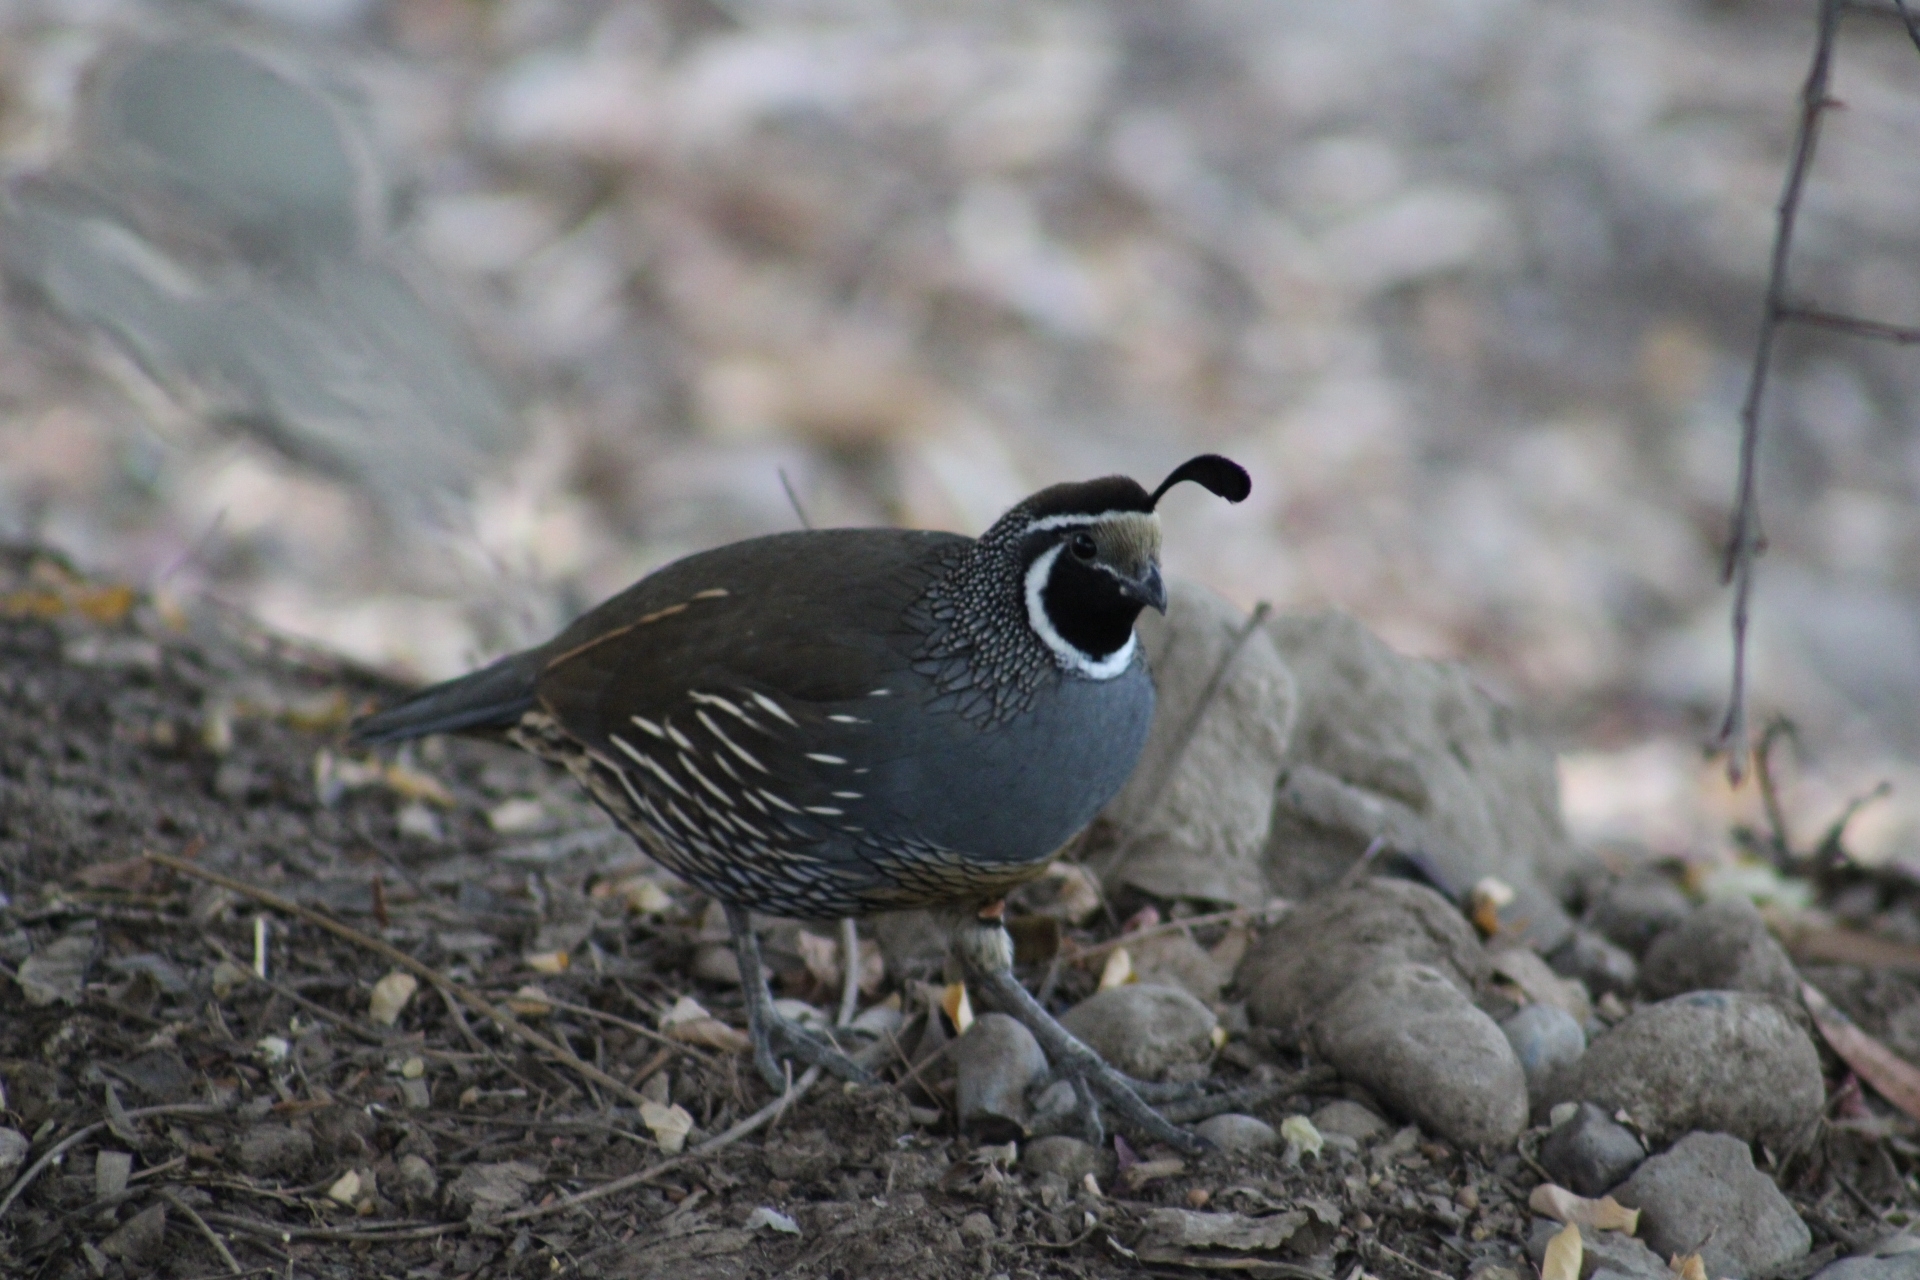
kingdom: Animalia
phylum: Chordata
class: Aves
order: Galliformes
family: Odontophoridae
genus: Callipepla
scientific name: Callipepla californica
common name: California quail
